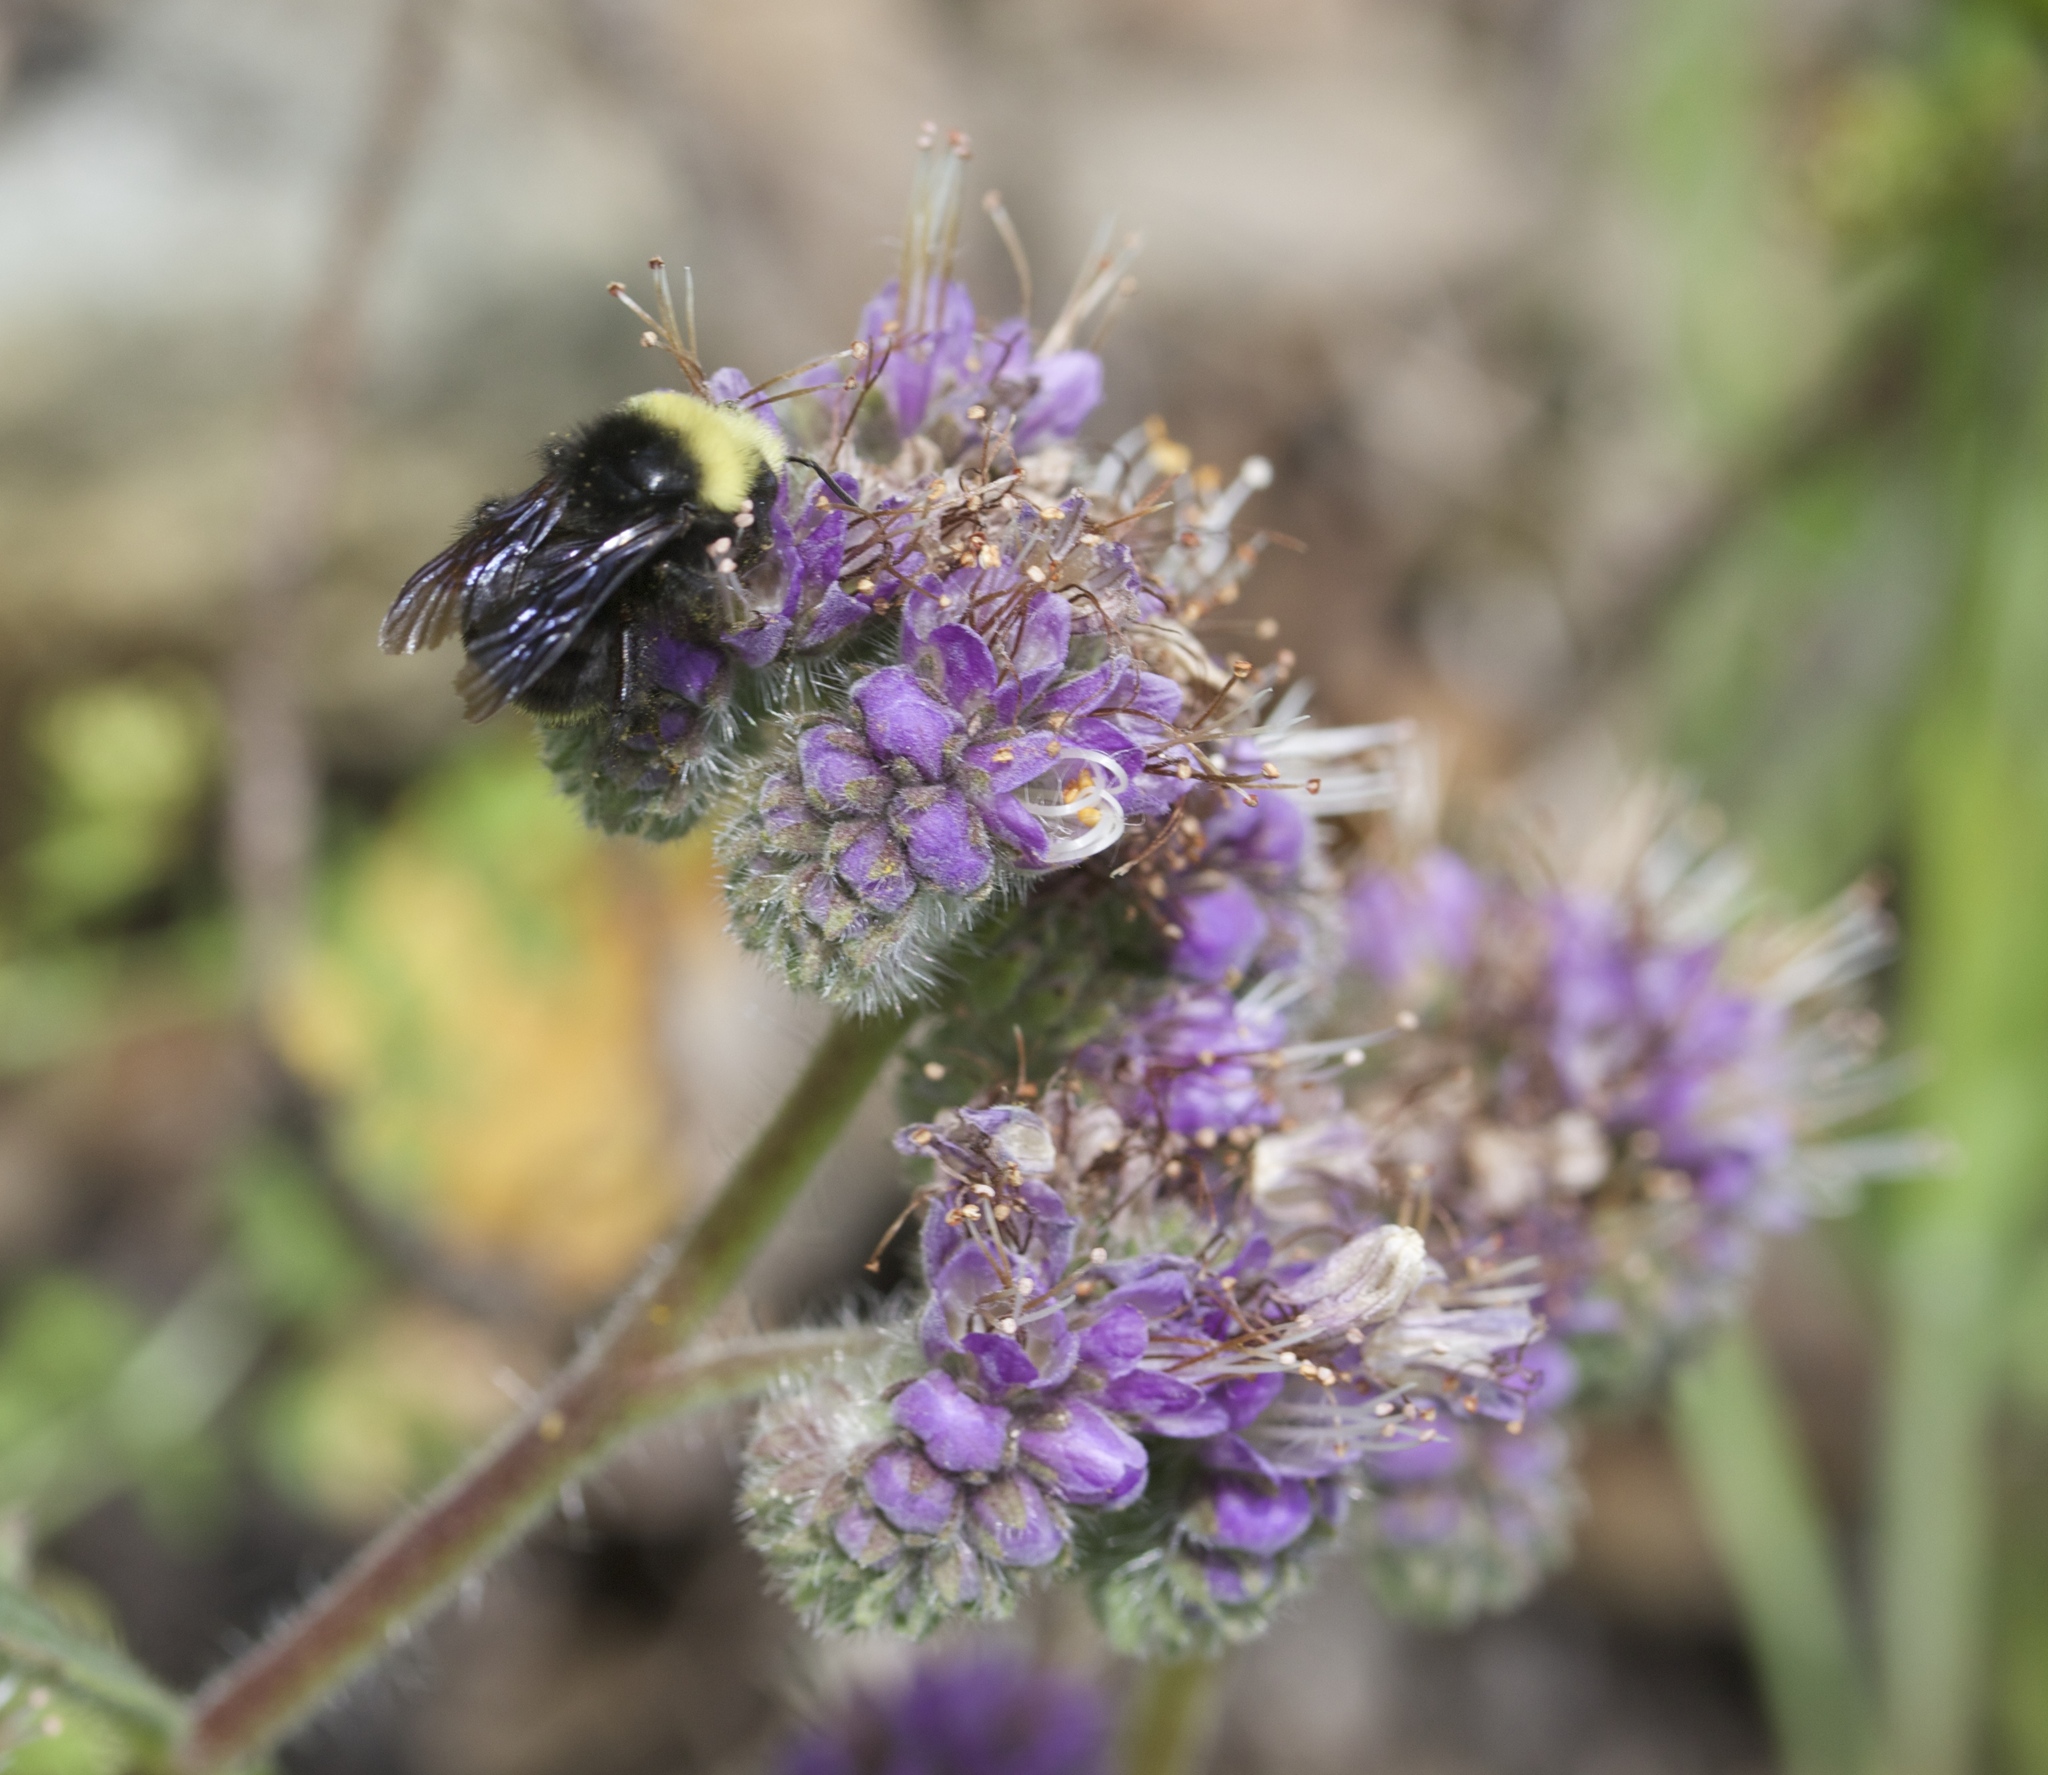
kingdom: Plantae
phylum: Tracheophyta
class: Magnoliopsida
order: Boraginales
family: Hydrophyllaceae
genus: Phacelia
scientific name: Phacelia californica
